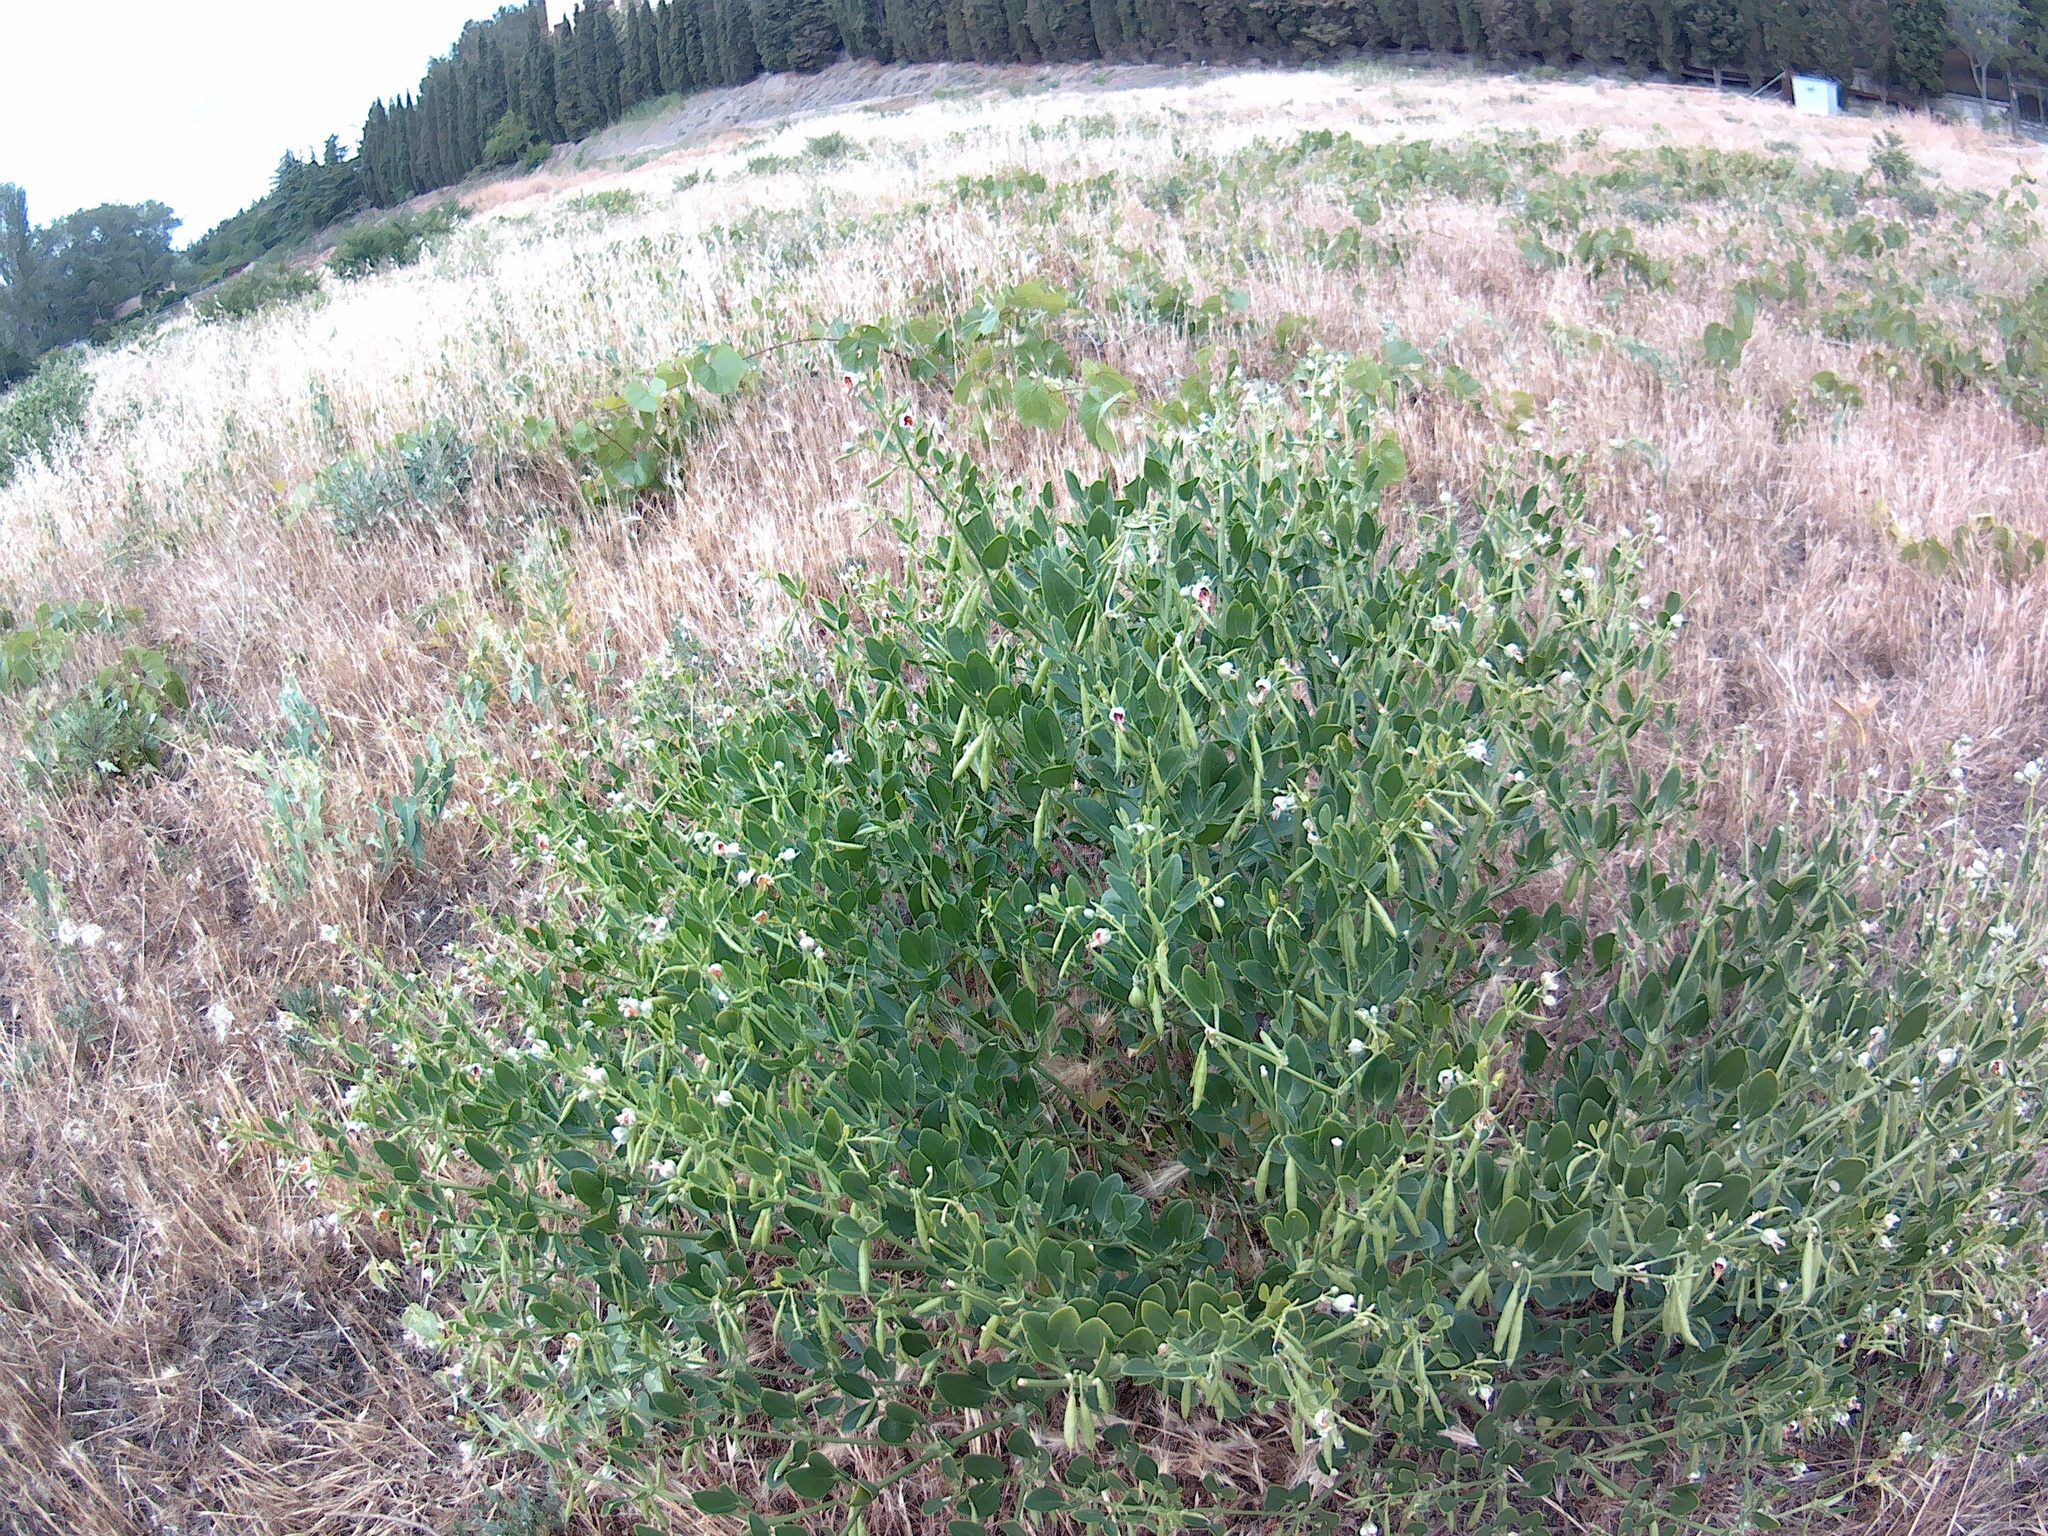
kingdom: Plantae
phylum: Tracheophyta
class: Magnoliopsida
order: Zygophyllales
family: Zygophyllaceae
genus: Zygophyllum
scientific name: Zygophyllum fabago
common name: Syrian beancaper
